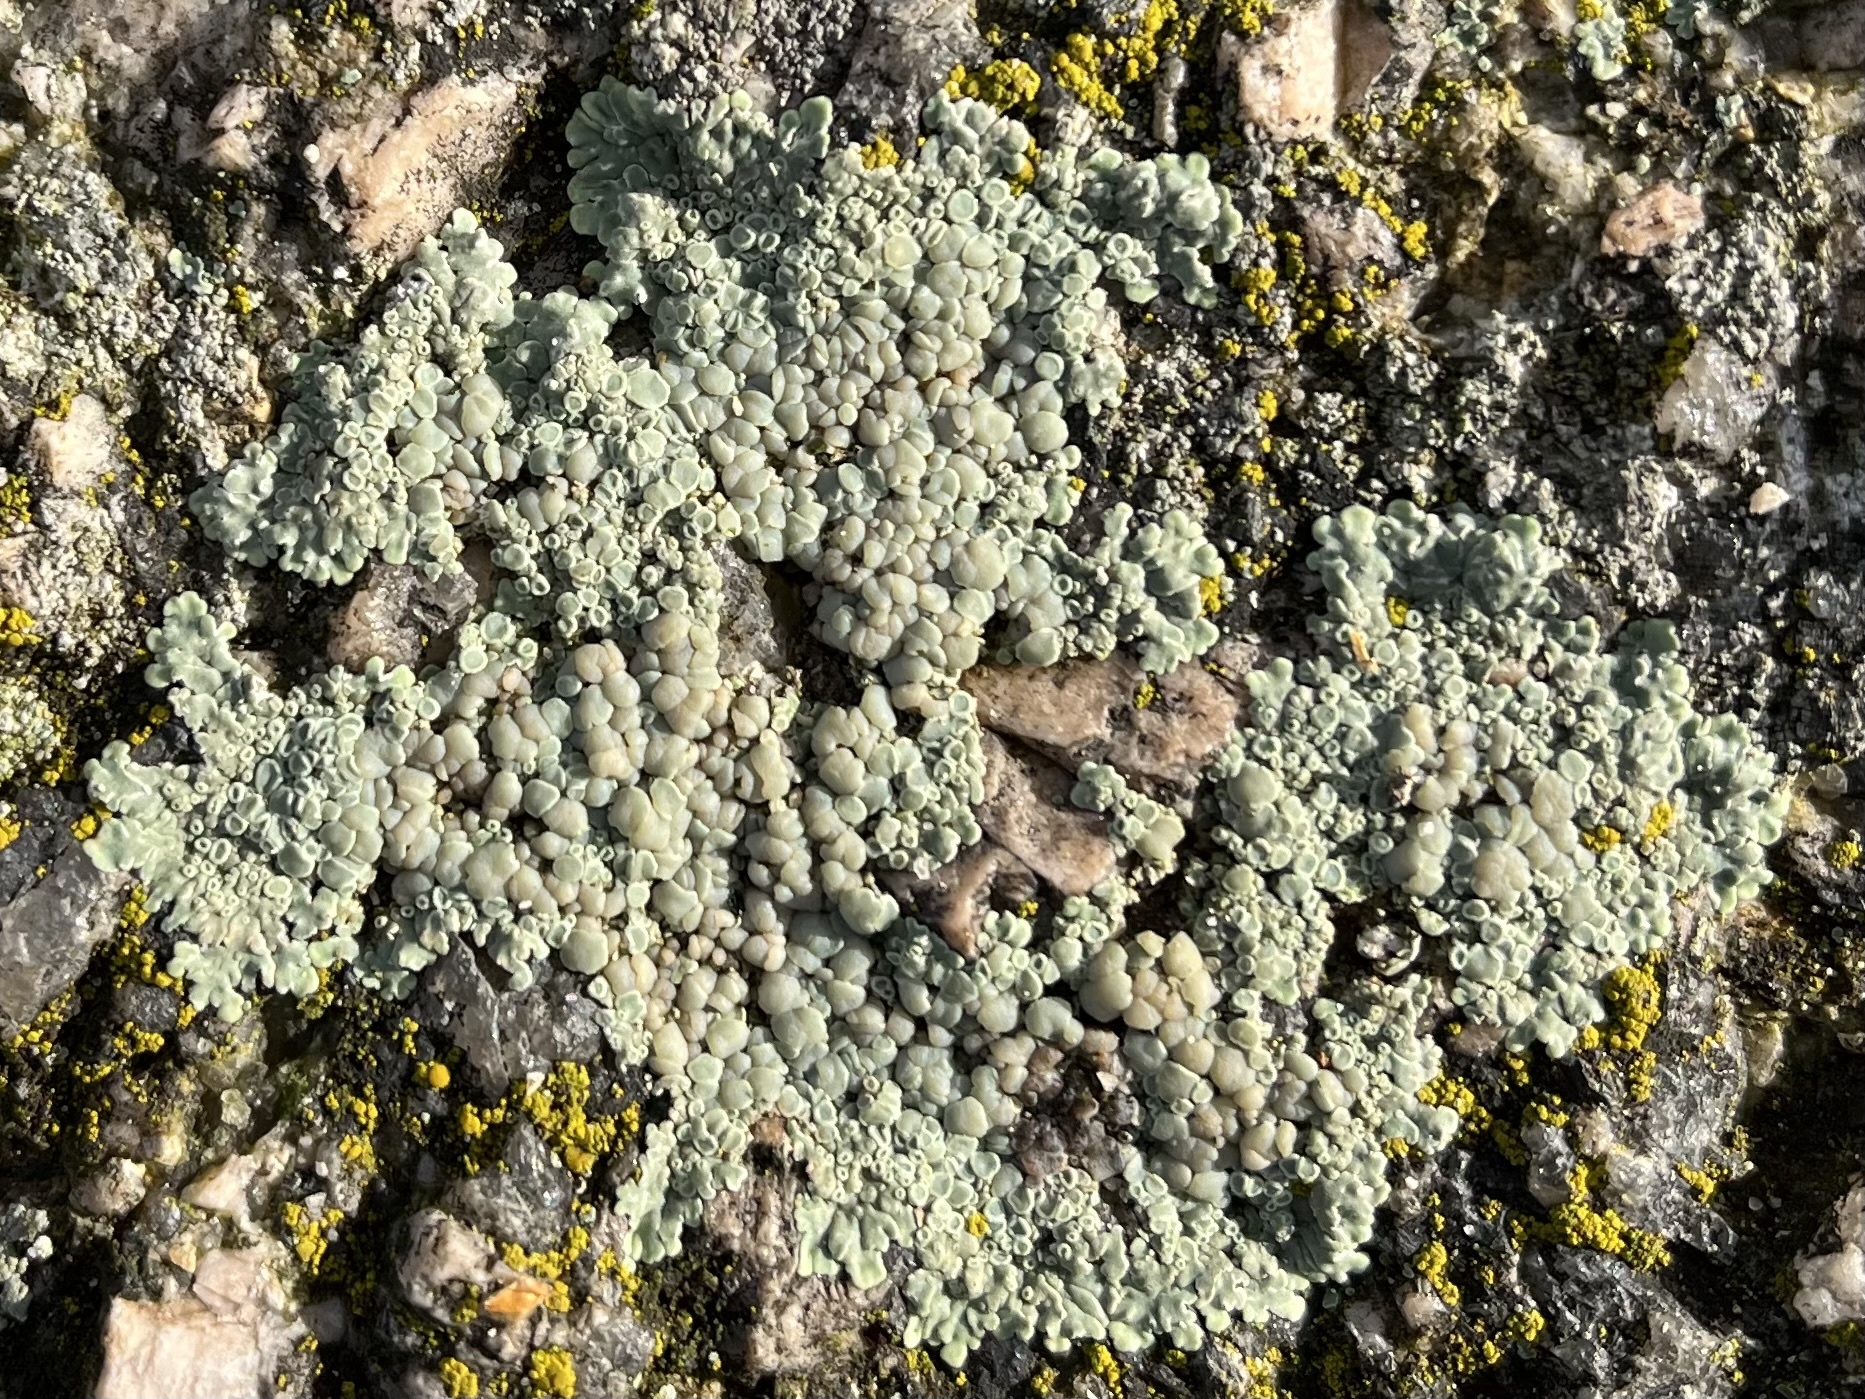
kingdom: Fungi
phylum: Ascomycota
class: Lecanoromycetes
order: Lecanorales
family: Lecanoraceae
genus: Protoparmeliopsis
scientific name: Protoparmeliopsis muralis
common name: Stonewall rim lichen
